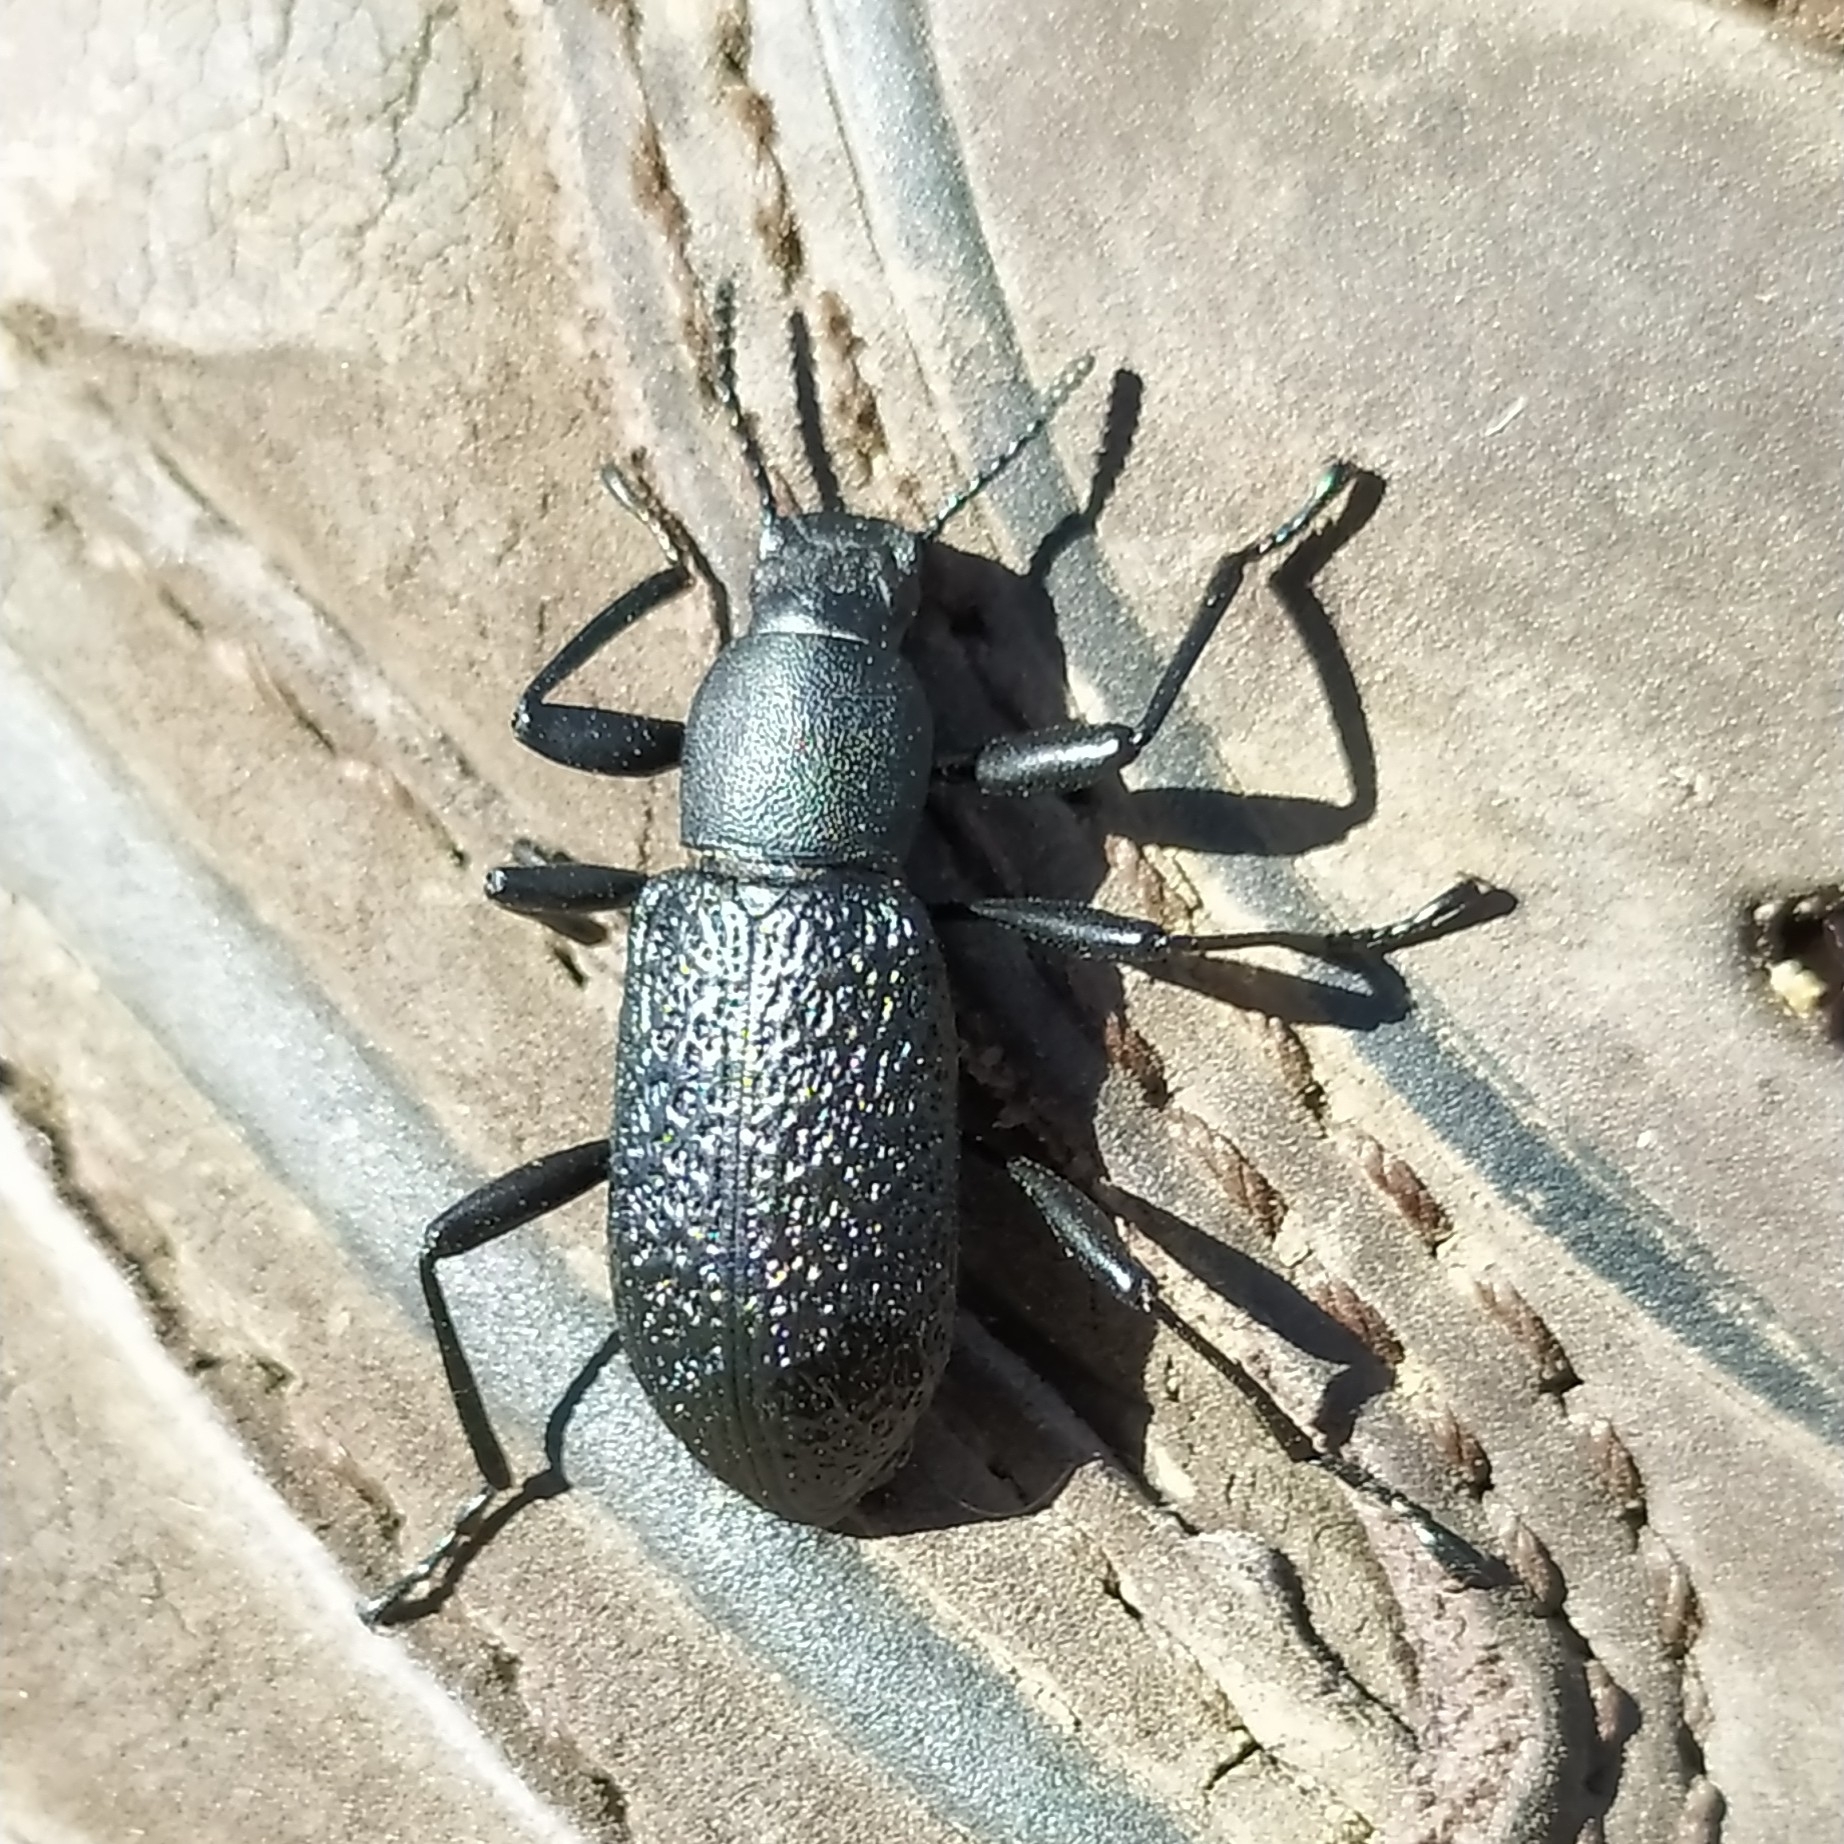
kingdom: Animalia
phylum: Arthropoda
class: Insecta
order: Coleoptera
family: Tenebrionidae
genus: Upis
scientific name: Upis ceramboides
